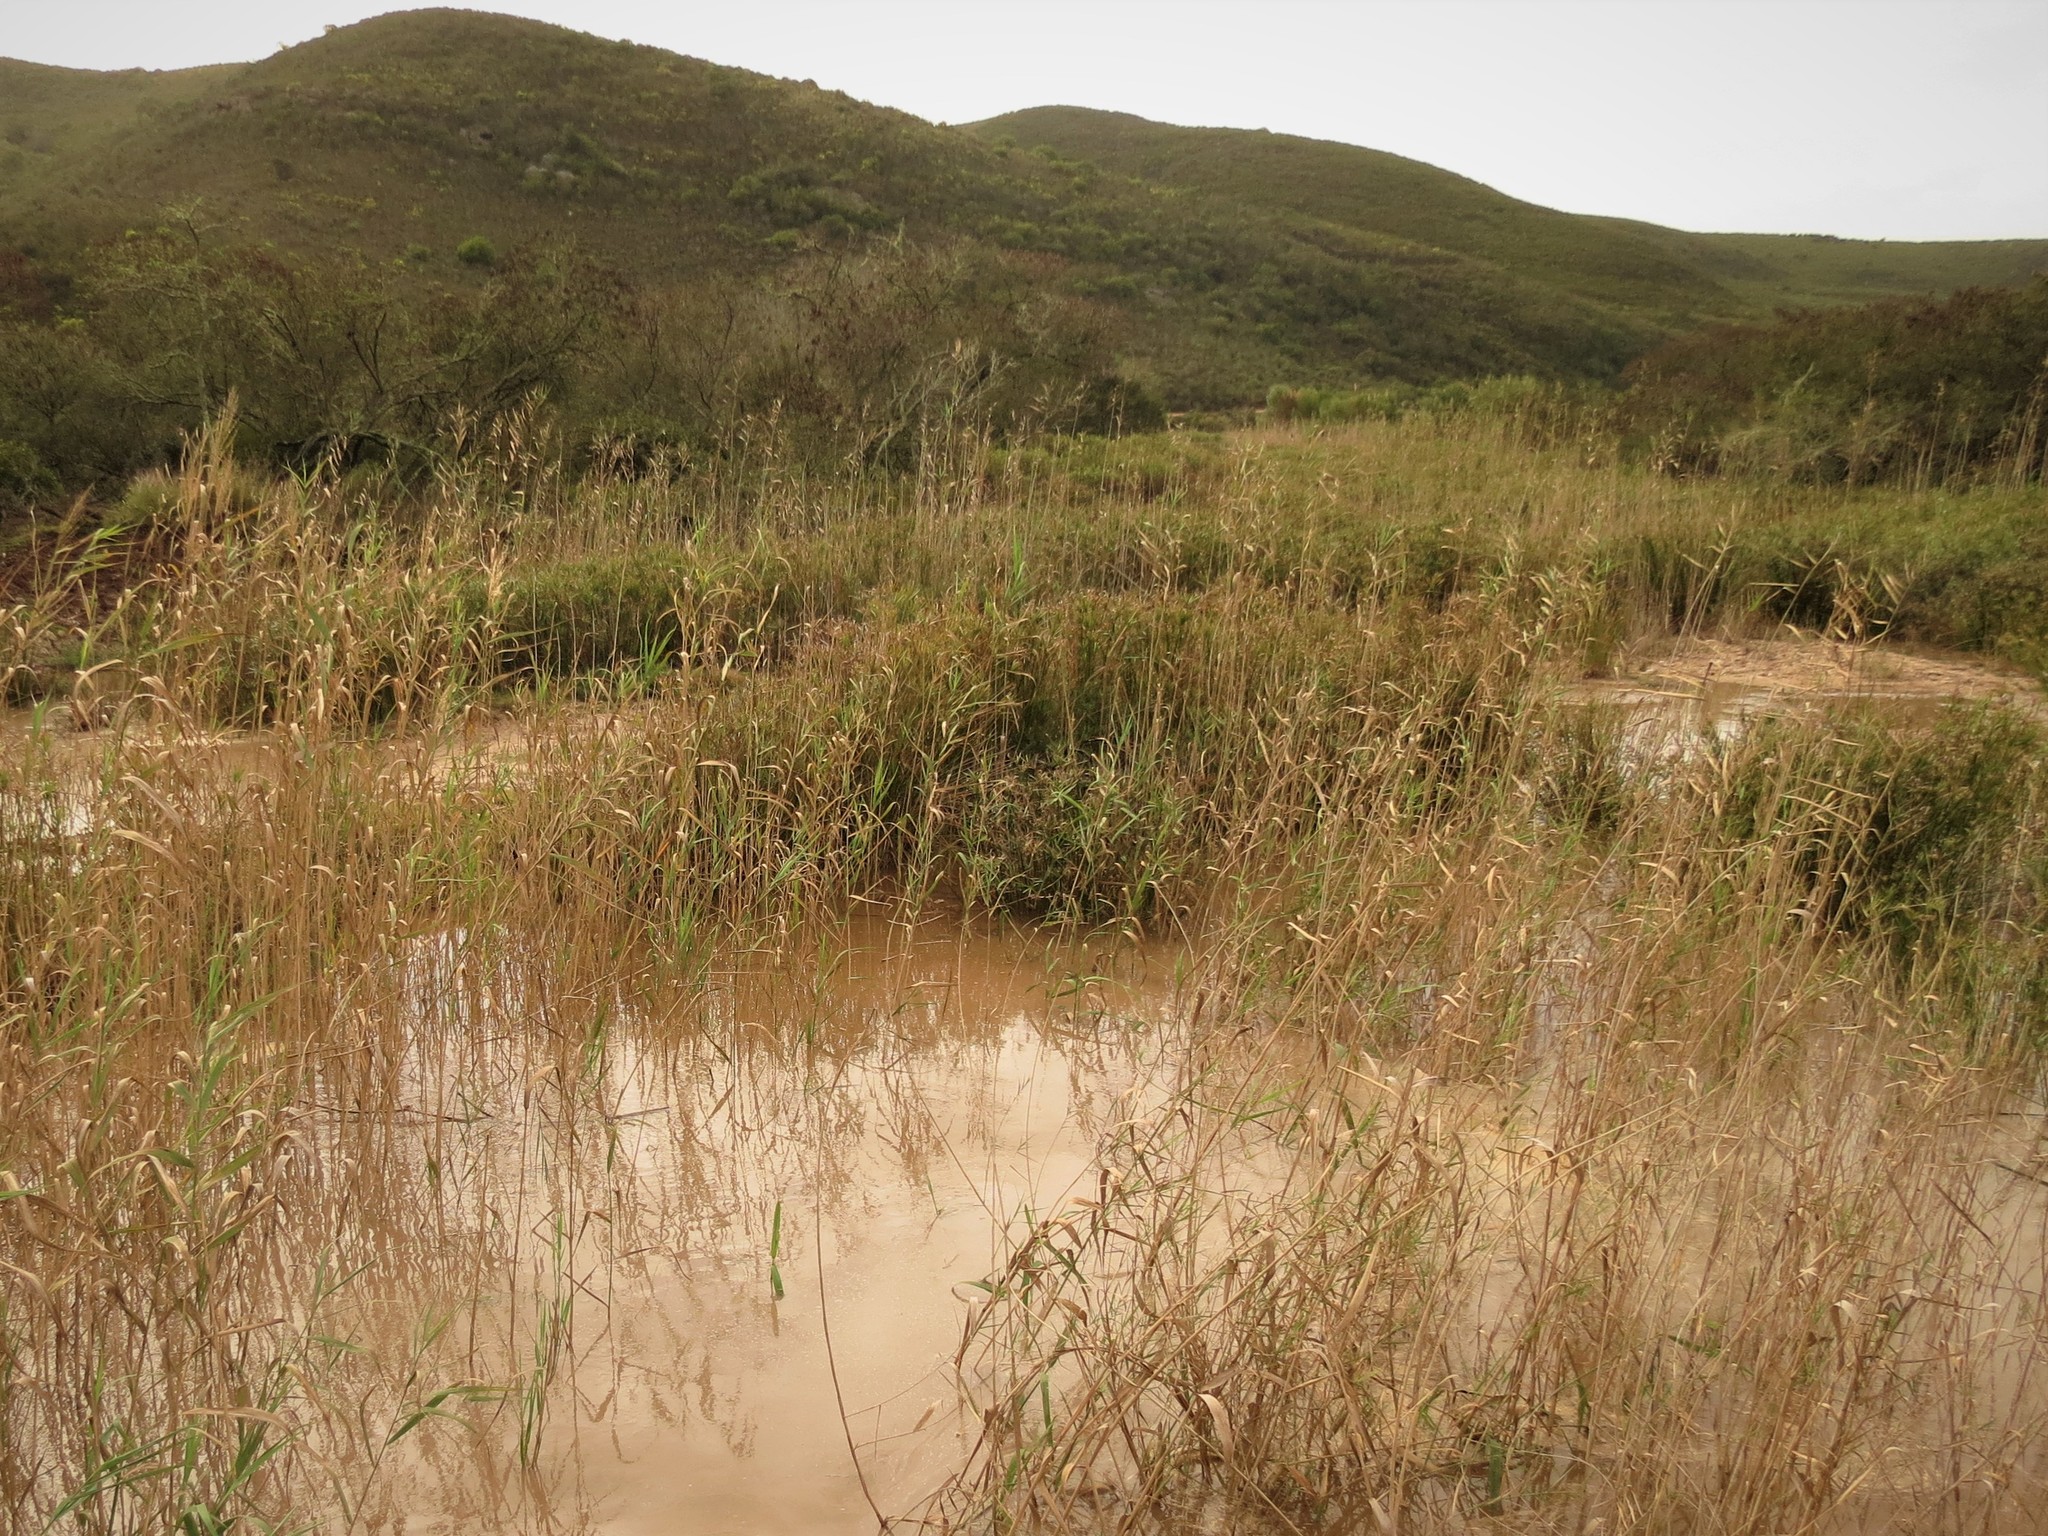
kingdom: Plantae
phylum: Tracheophyta
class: Liliopsida
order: Poales
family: Poaceae
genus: Phragmites
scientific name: Phragmites australis
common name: Common reed
